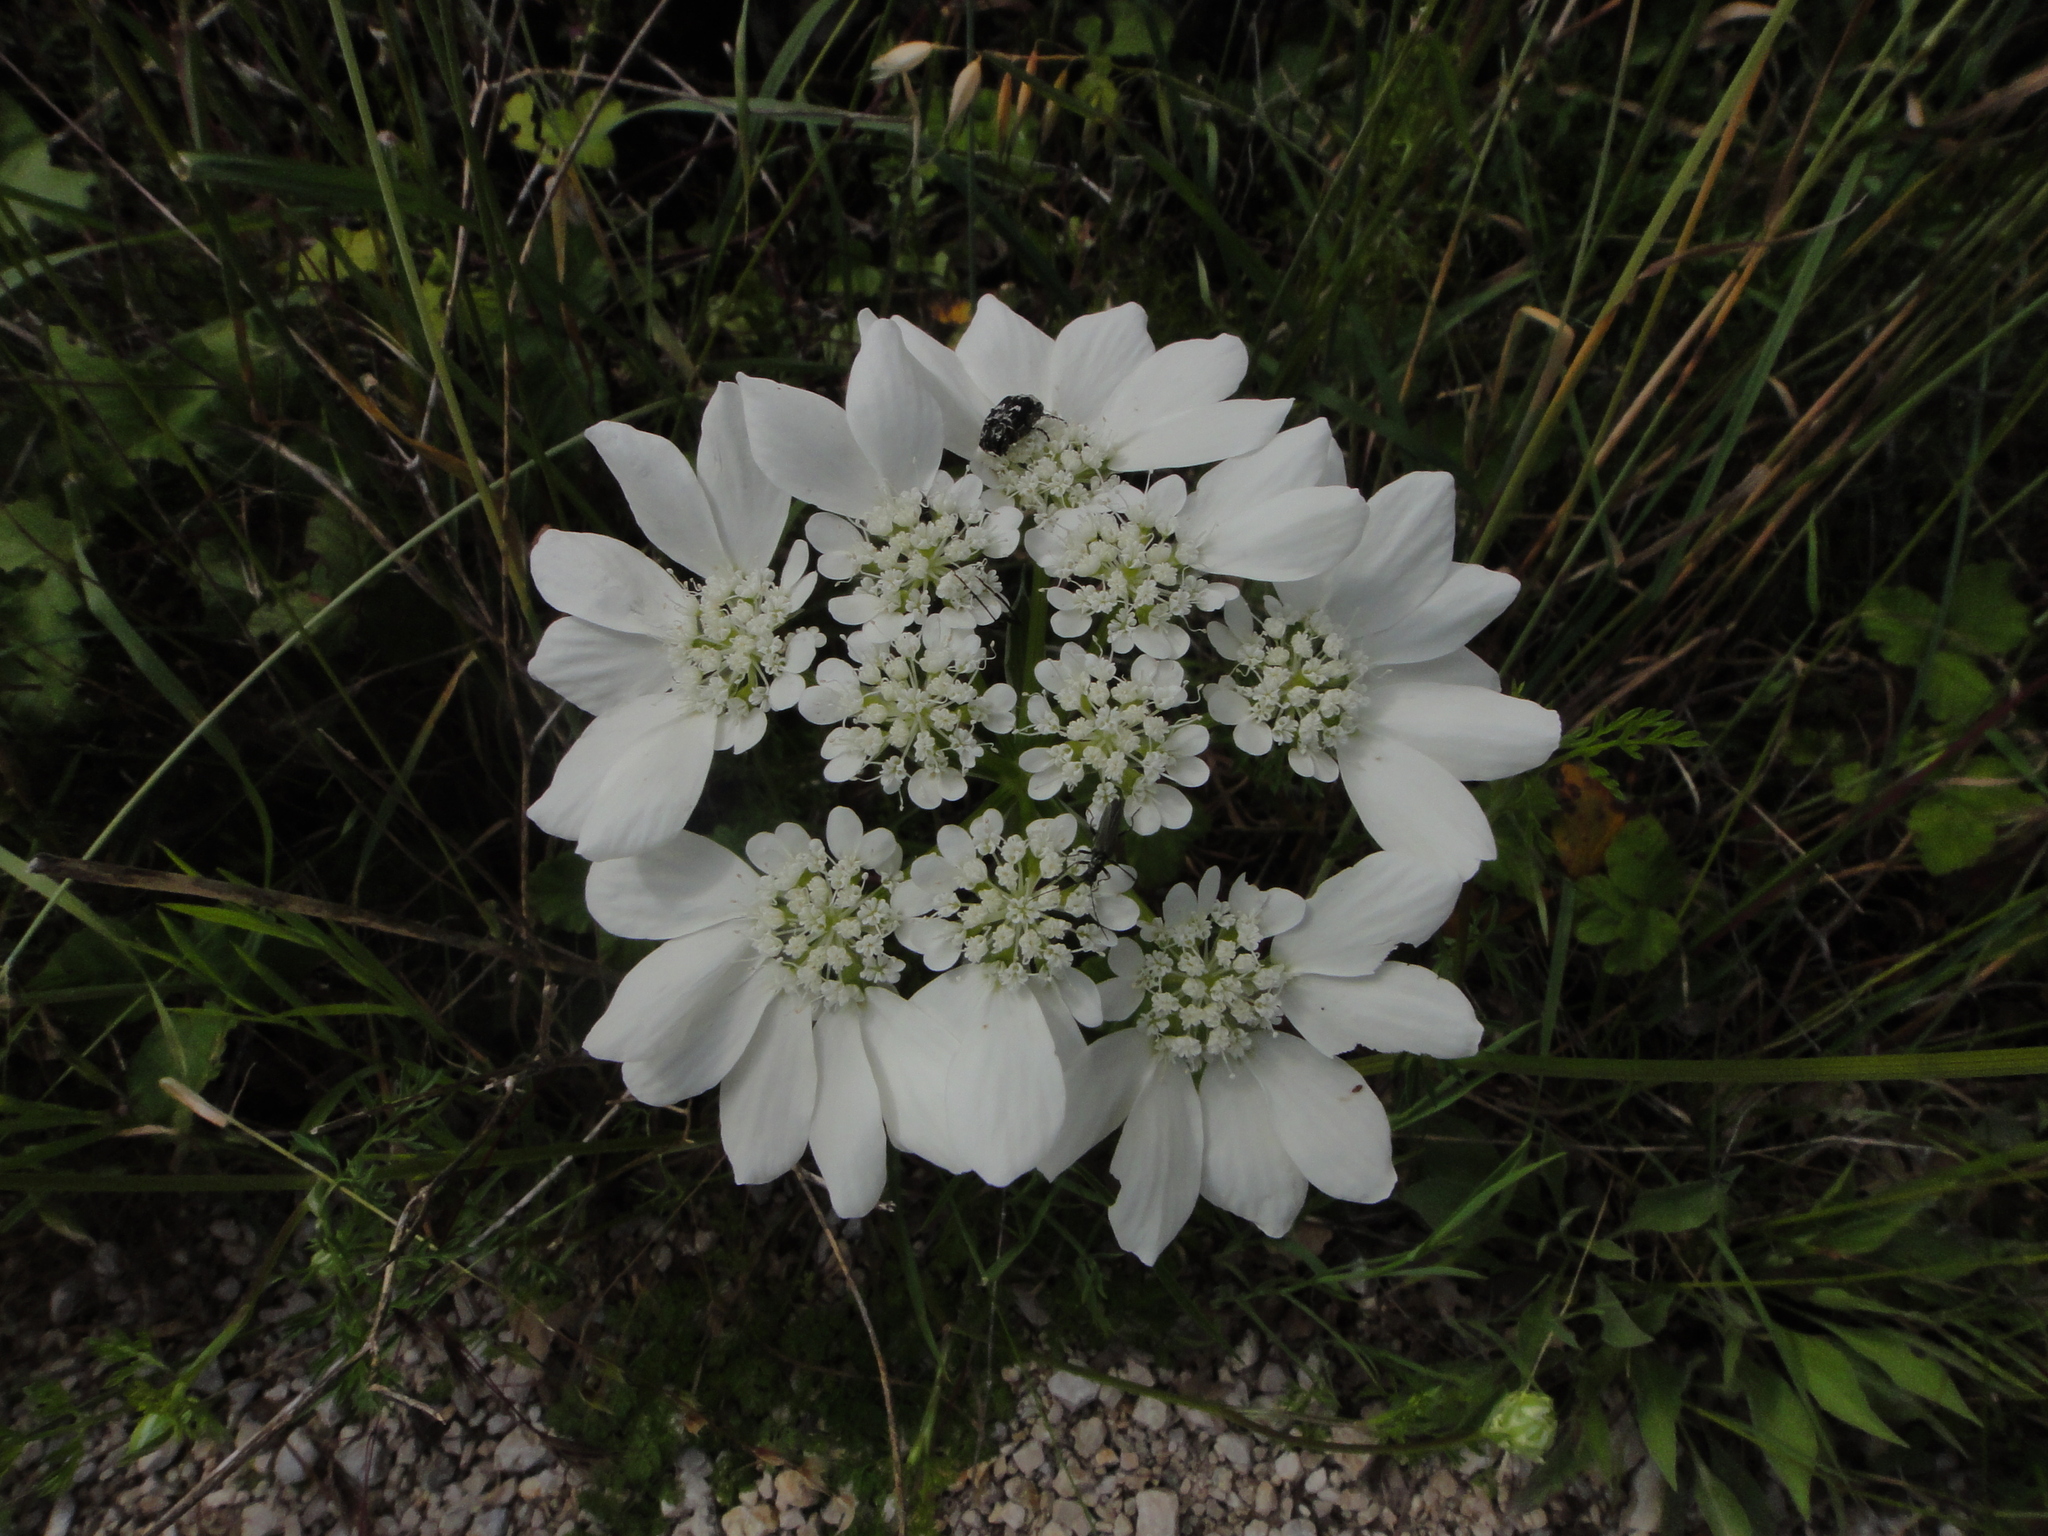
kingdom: Plantae
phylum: Tracheophyta
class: Magnoliopsida
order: Apiales
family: Apiaceae
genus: Orlaya
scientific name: Orlaya grandiflora
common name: White lace flower
